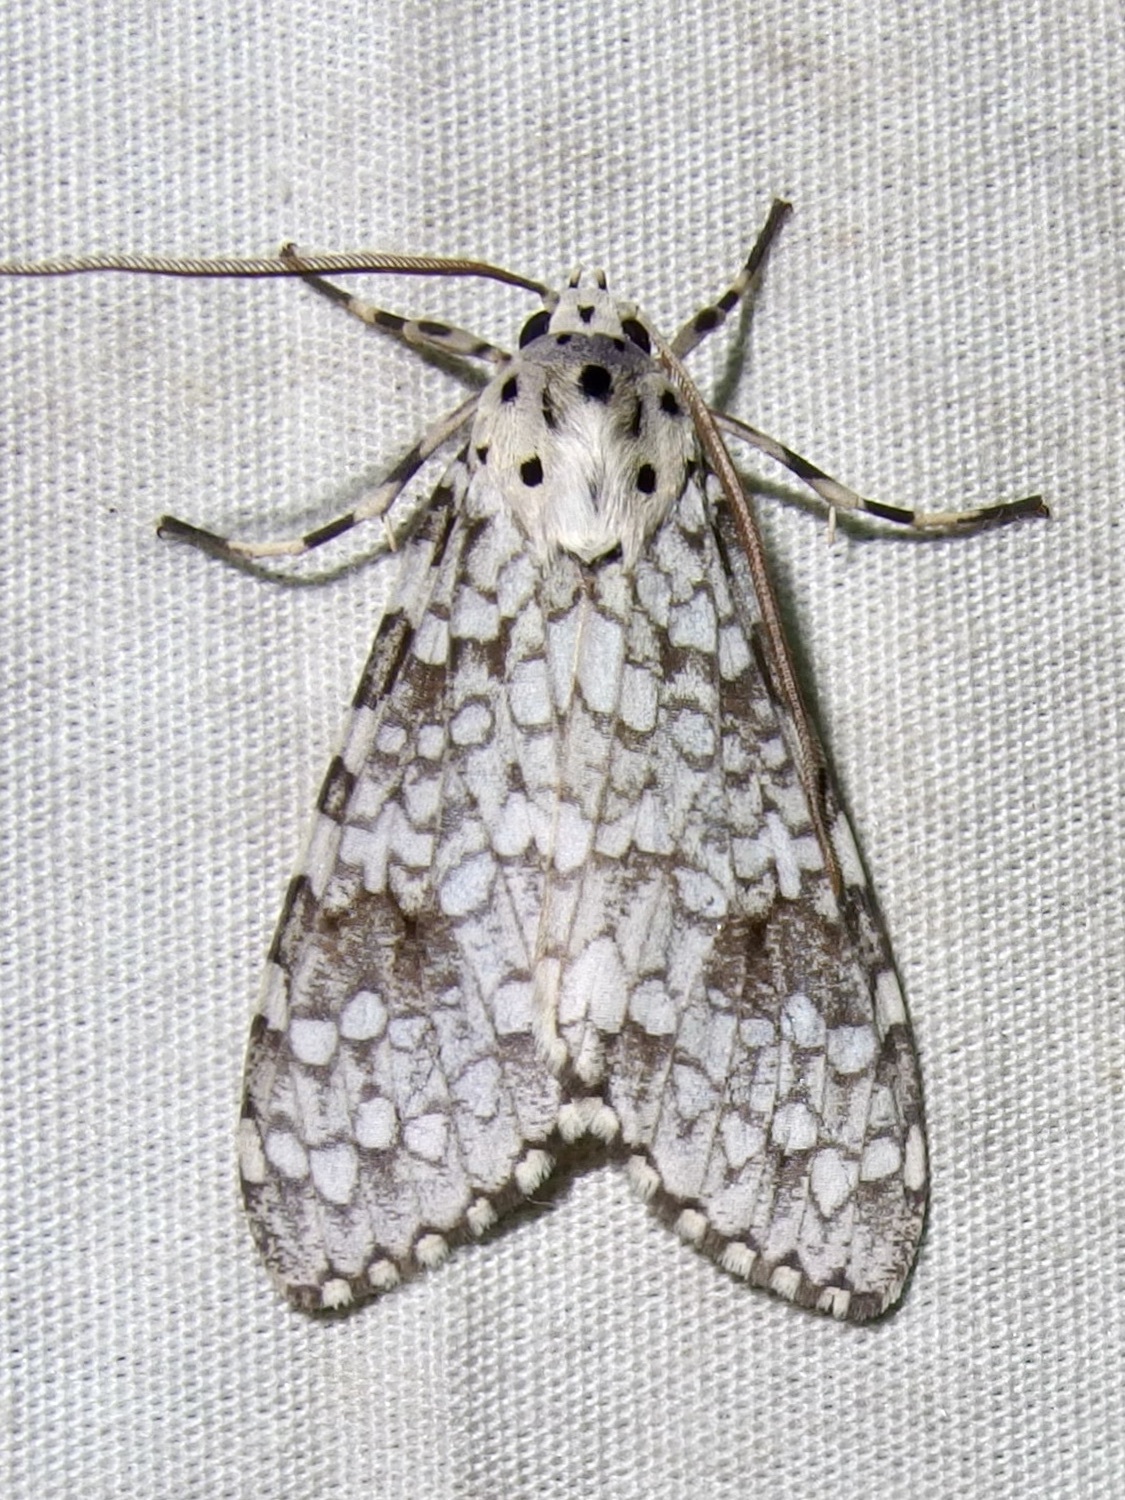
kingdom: Animalia
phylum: Arthropoda
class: Insecta
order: Lepidoptera
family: Erebidae
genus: Carales
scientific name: Carales arizonensis
